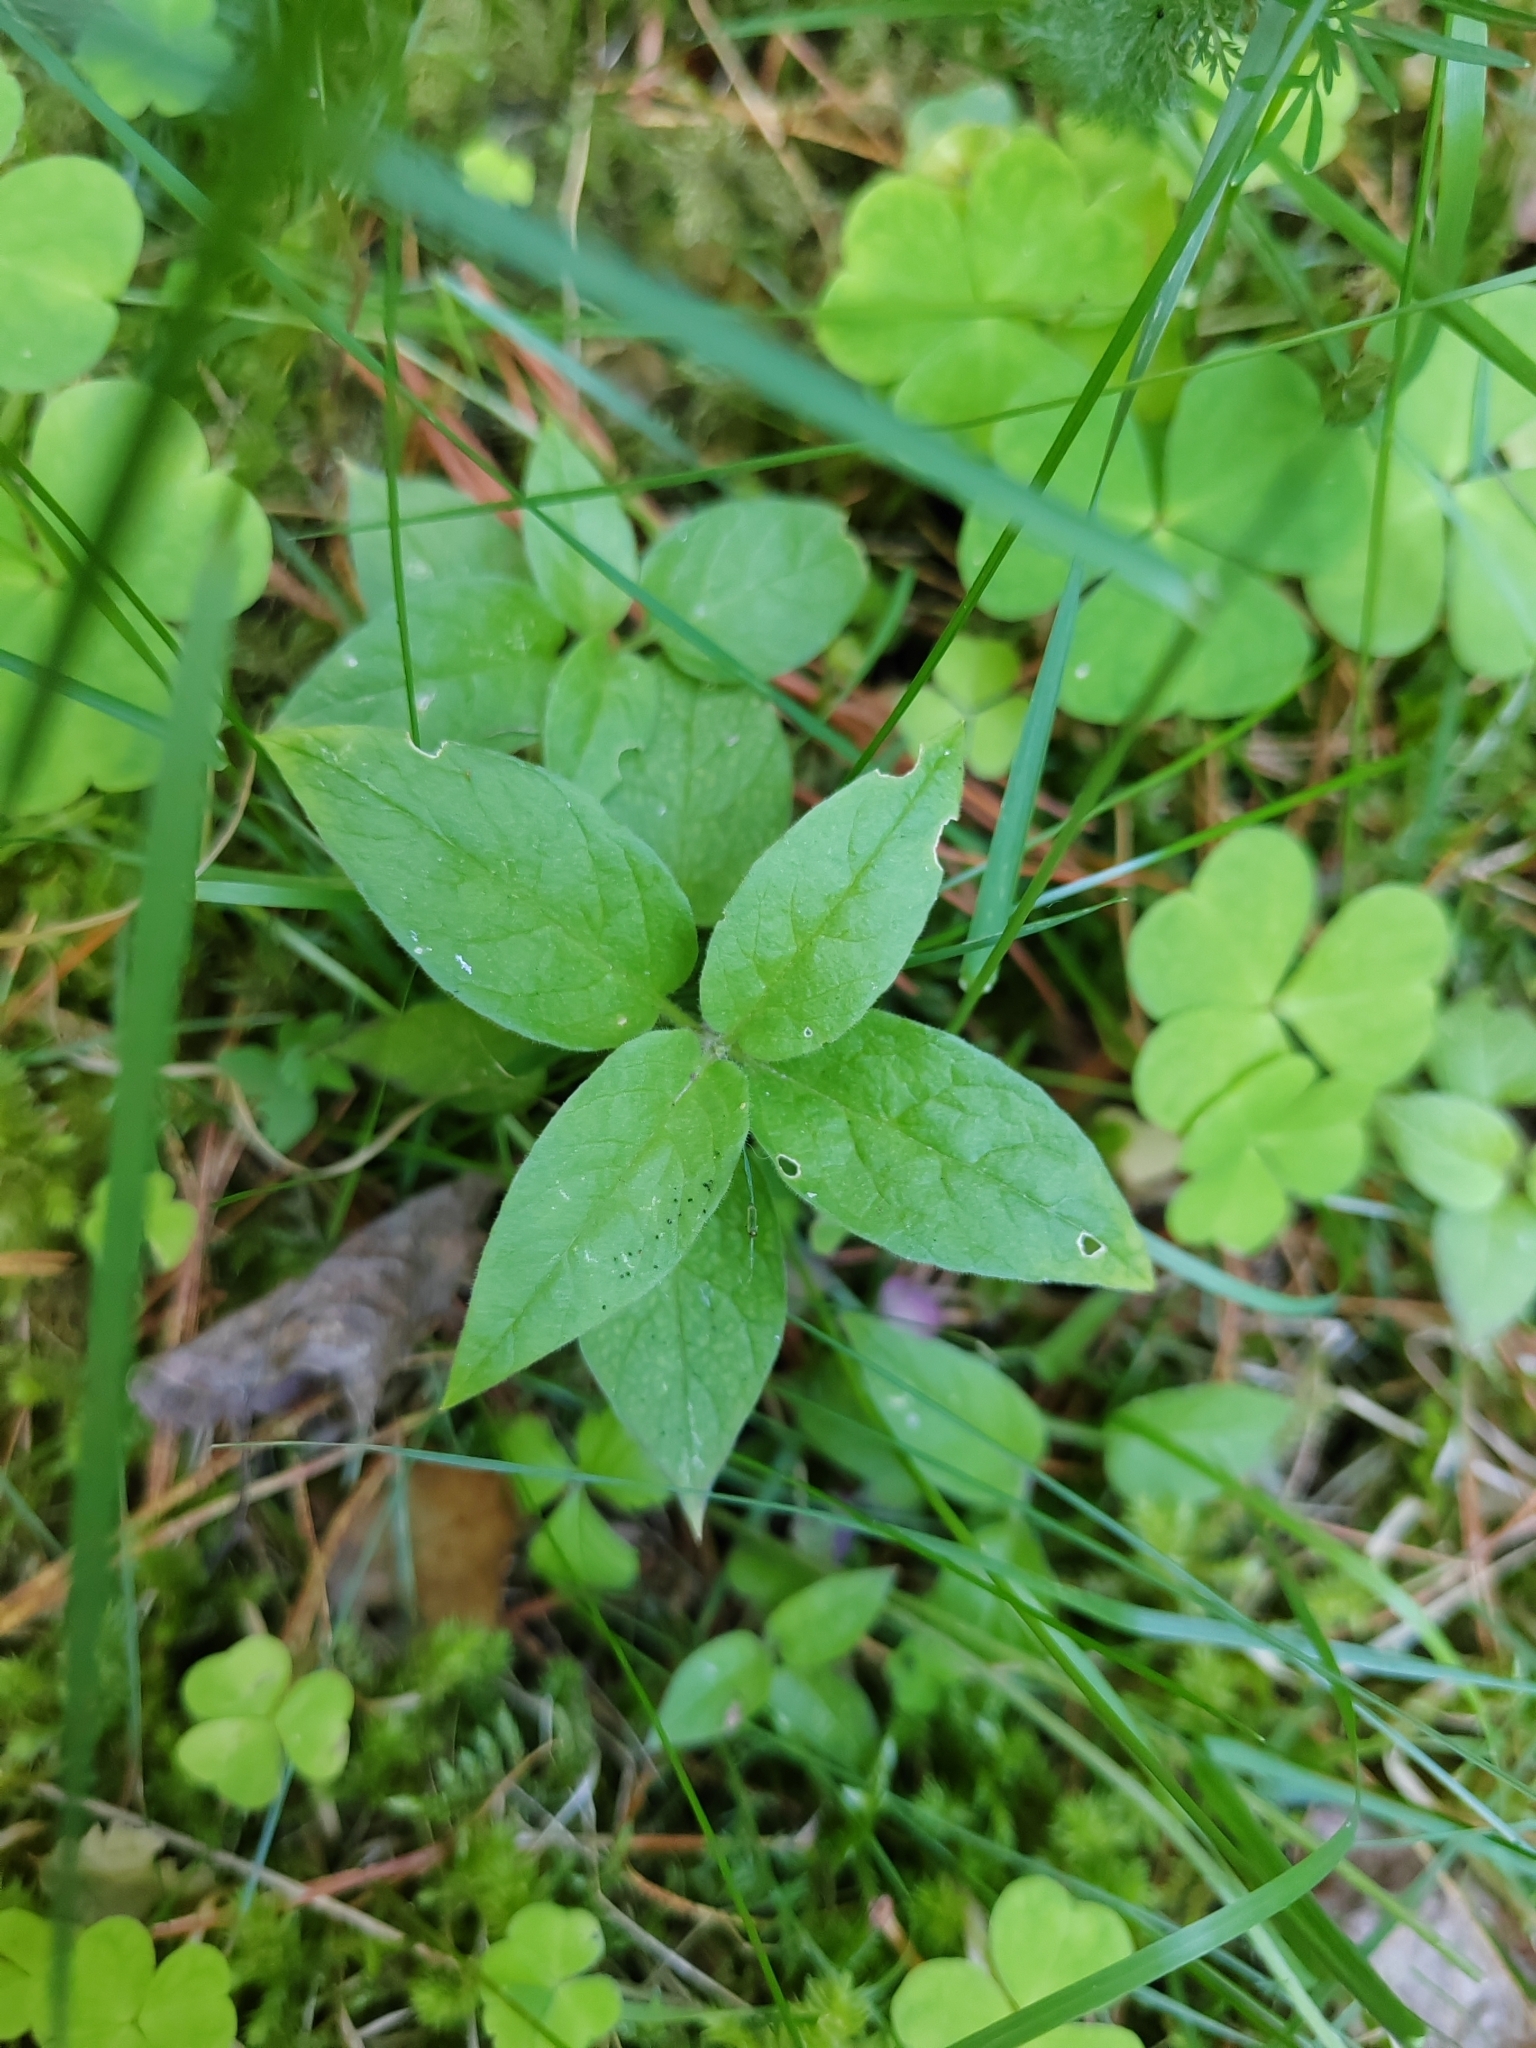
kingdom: Plantae
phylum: Tracheophyta
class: Magnoliopsida
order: Caryophyllales
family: Caryophyllaceae
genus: Stellaria
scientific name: Stellaria bungeana
